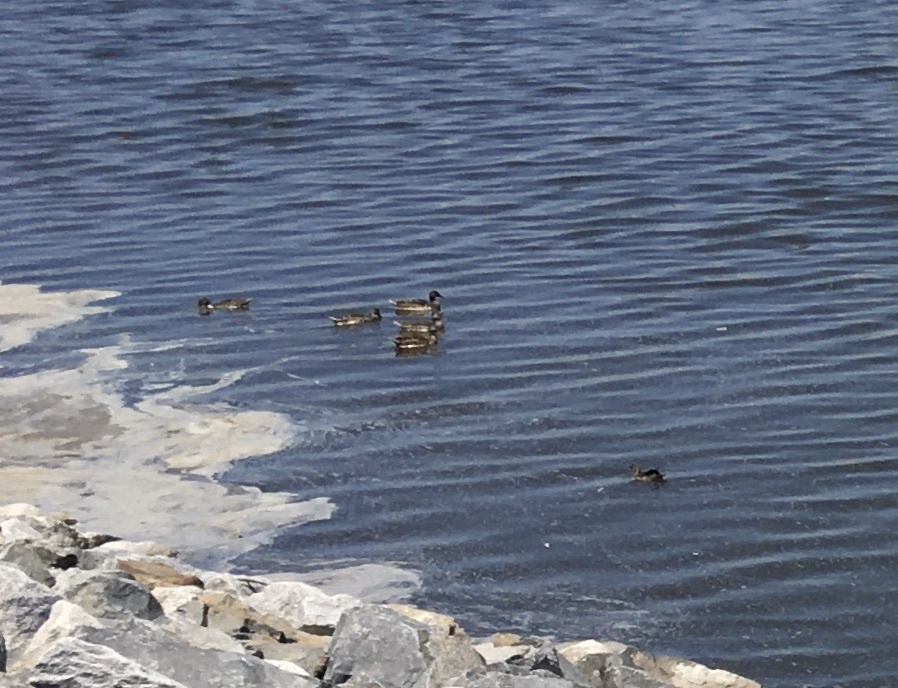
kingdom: Animalia
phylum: Chordata
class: Aves
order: Anseriformes
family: Anatidae
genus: Anas
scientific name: Anas platyrhynchos
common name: Mallard
